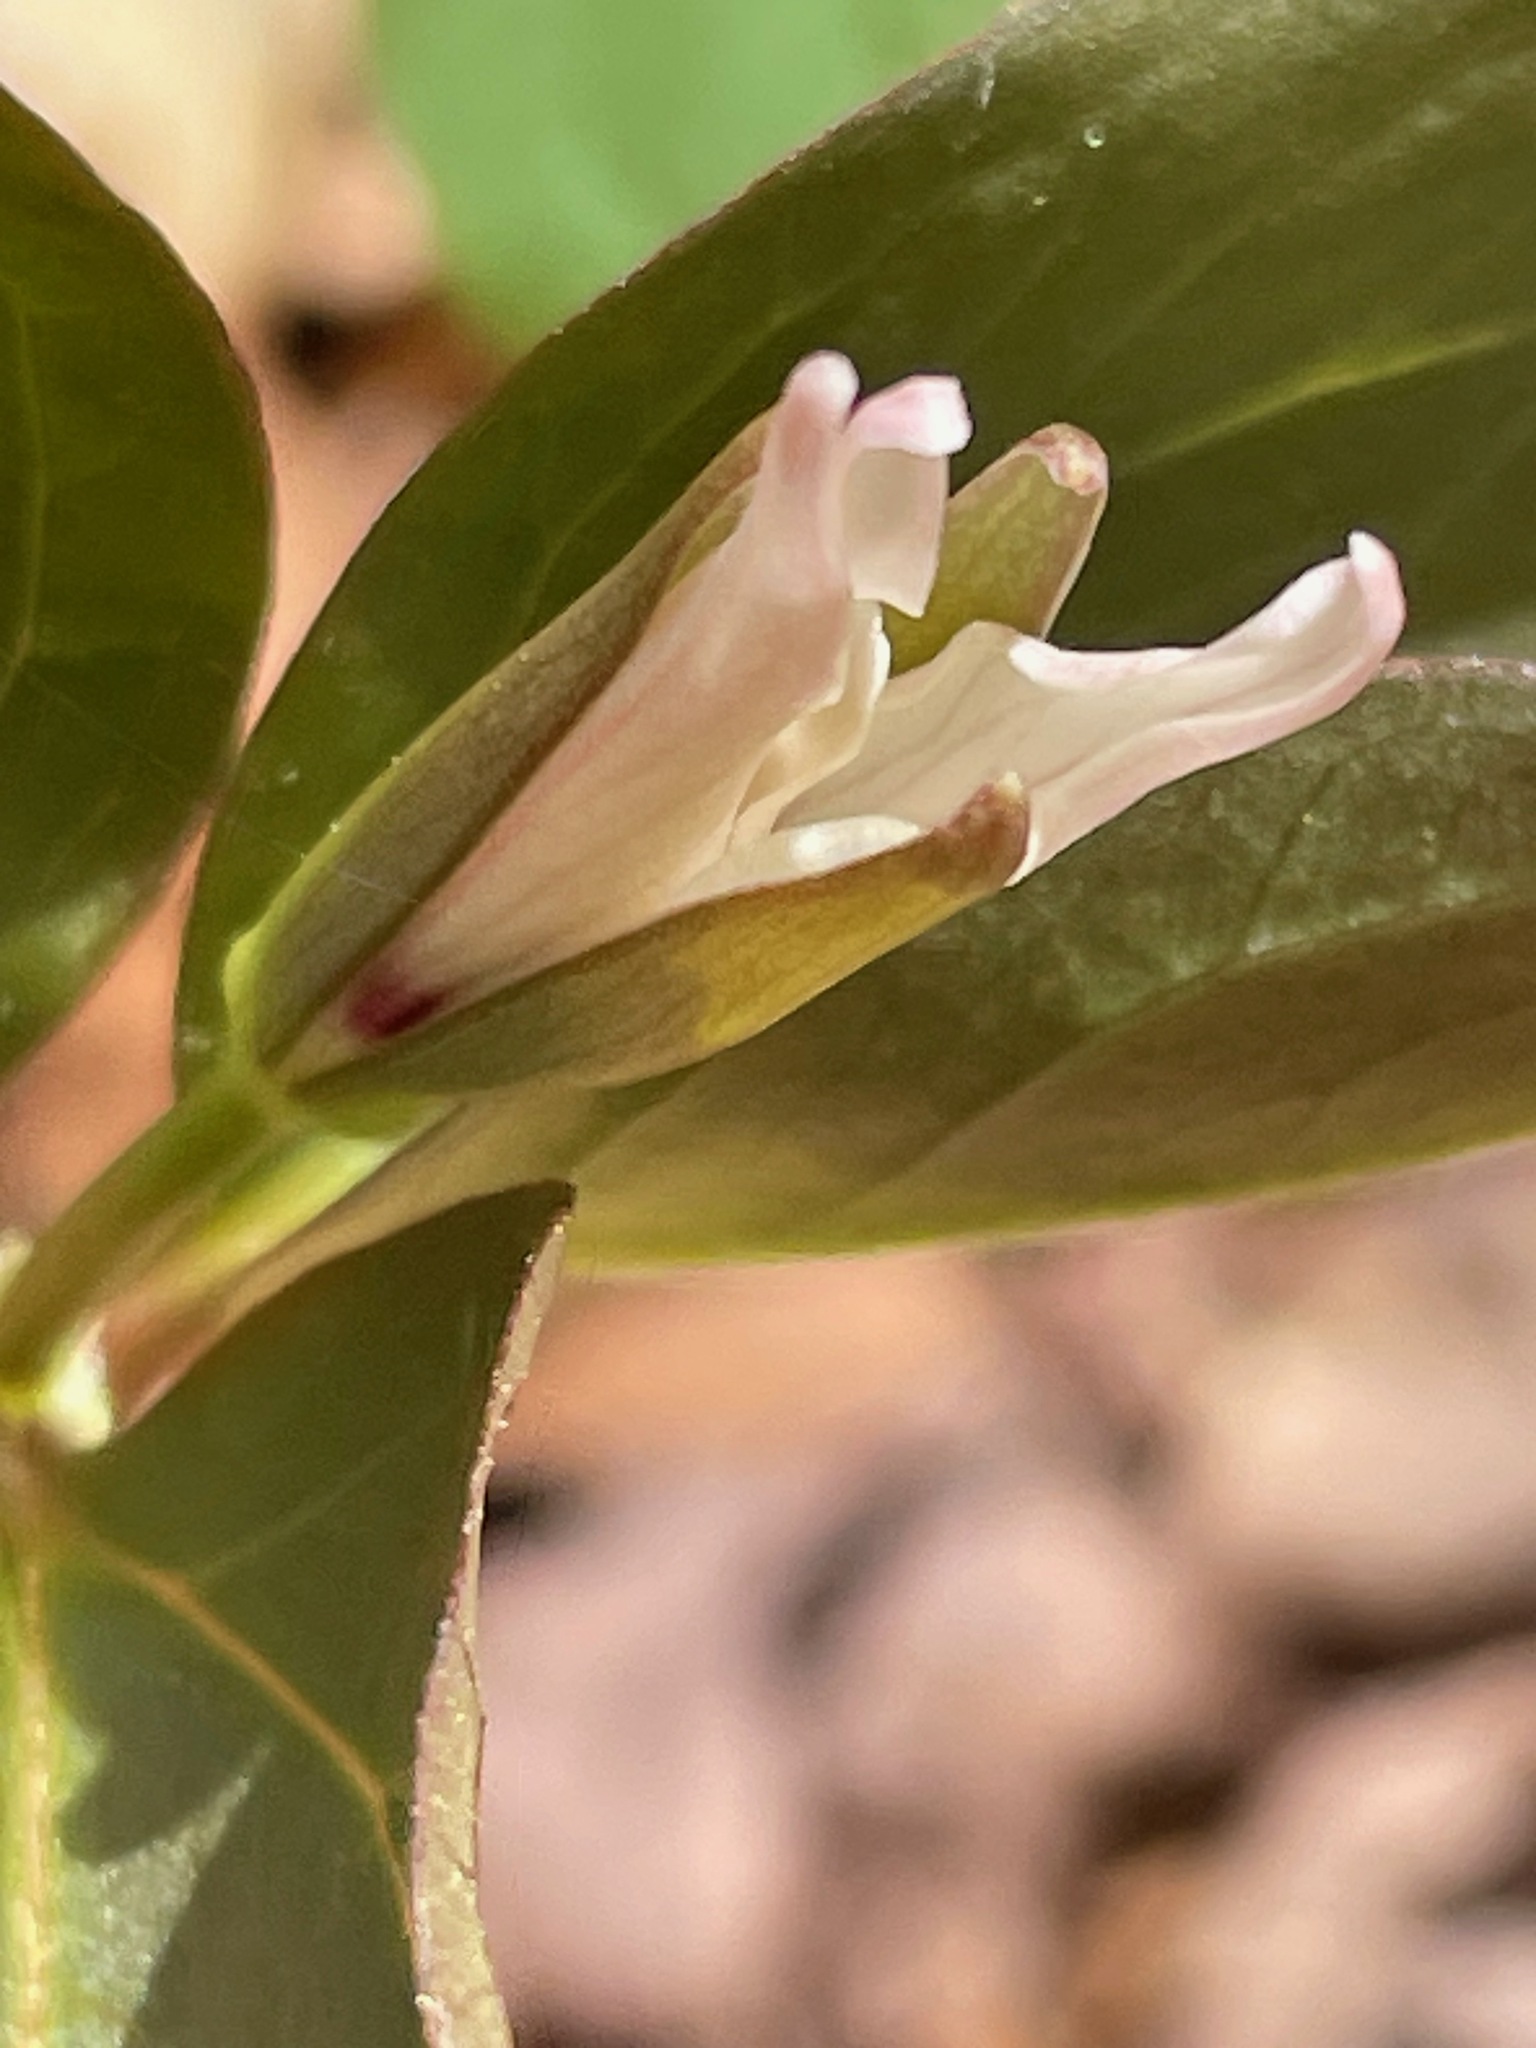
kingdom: Plantae
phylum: Tracheophyta
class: Liliopsida
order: Liliales
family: Melanthiaceae
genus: Trillium
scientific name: Trillium undulatum
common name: Paint trillium
